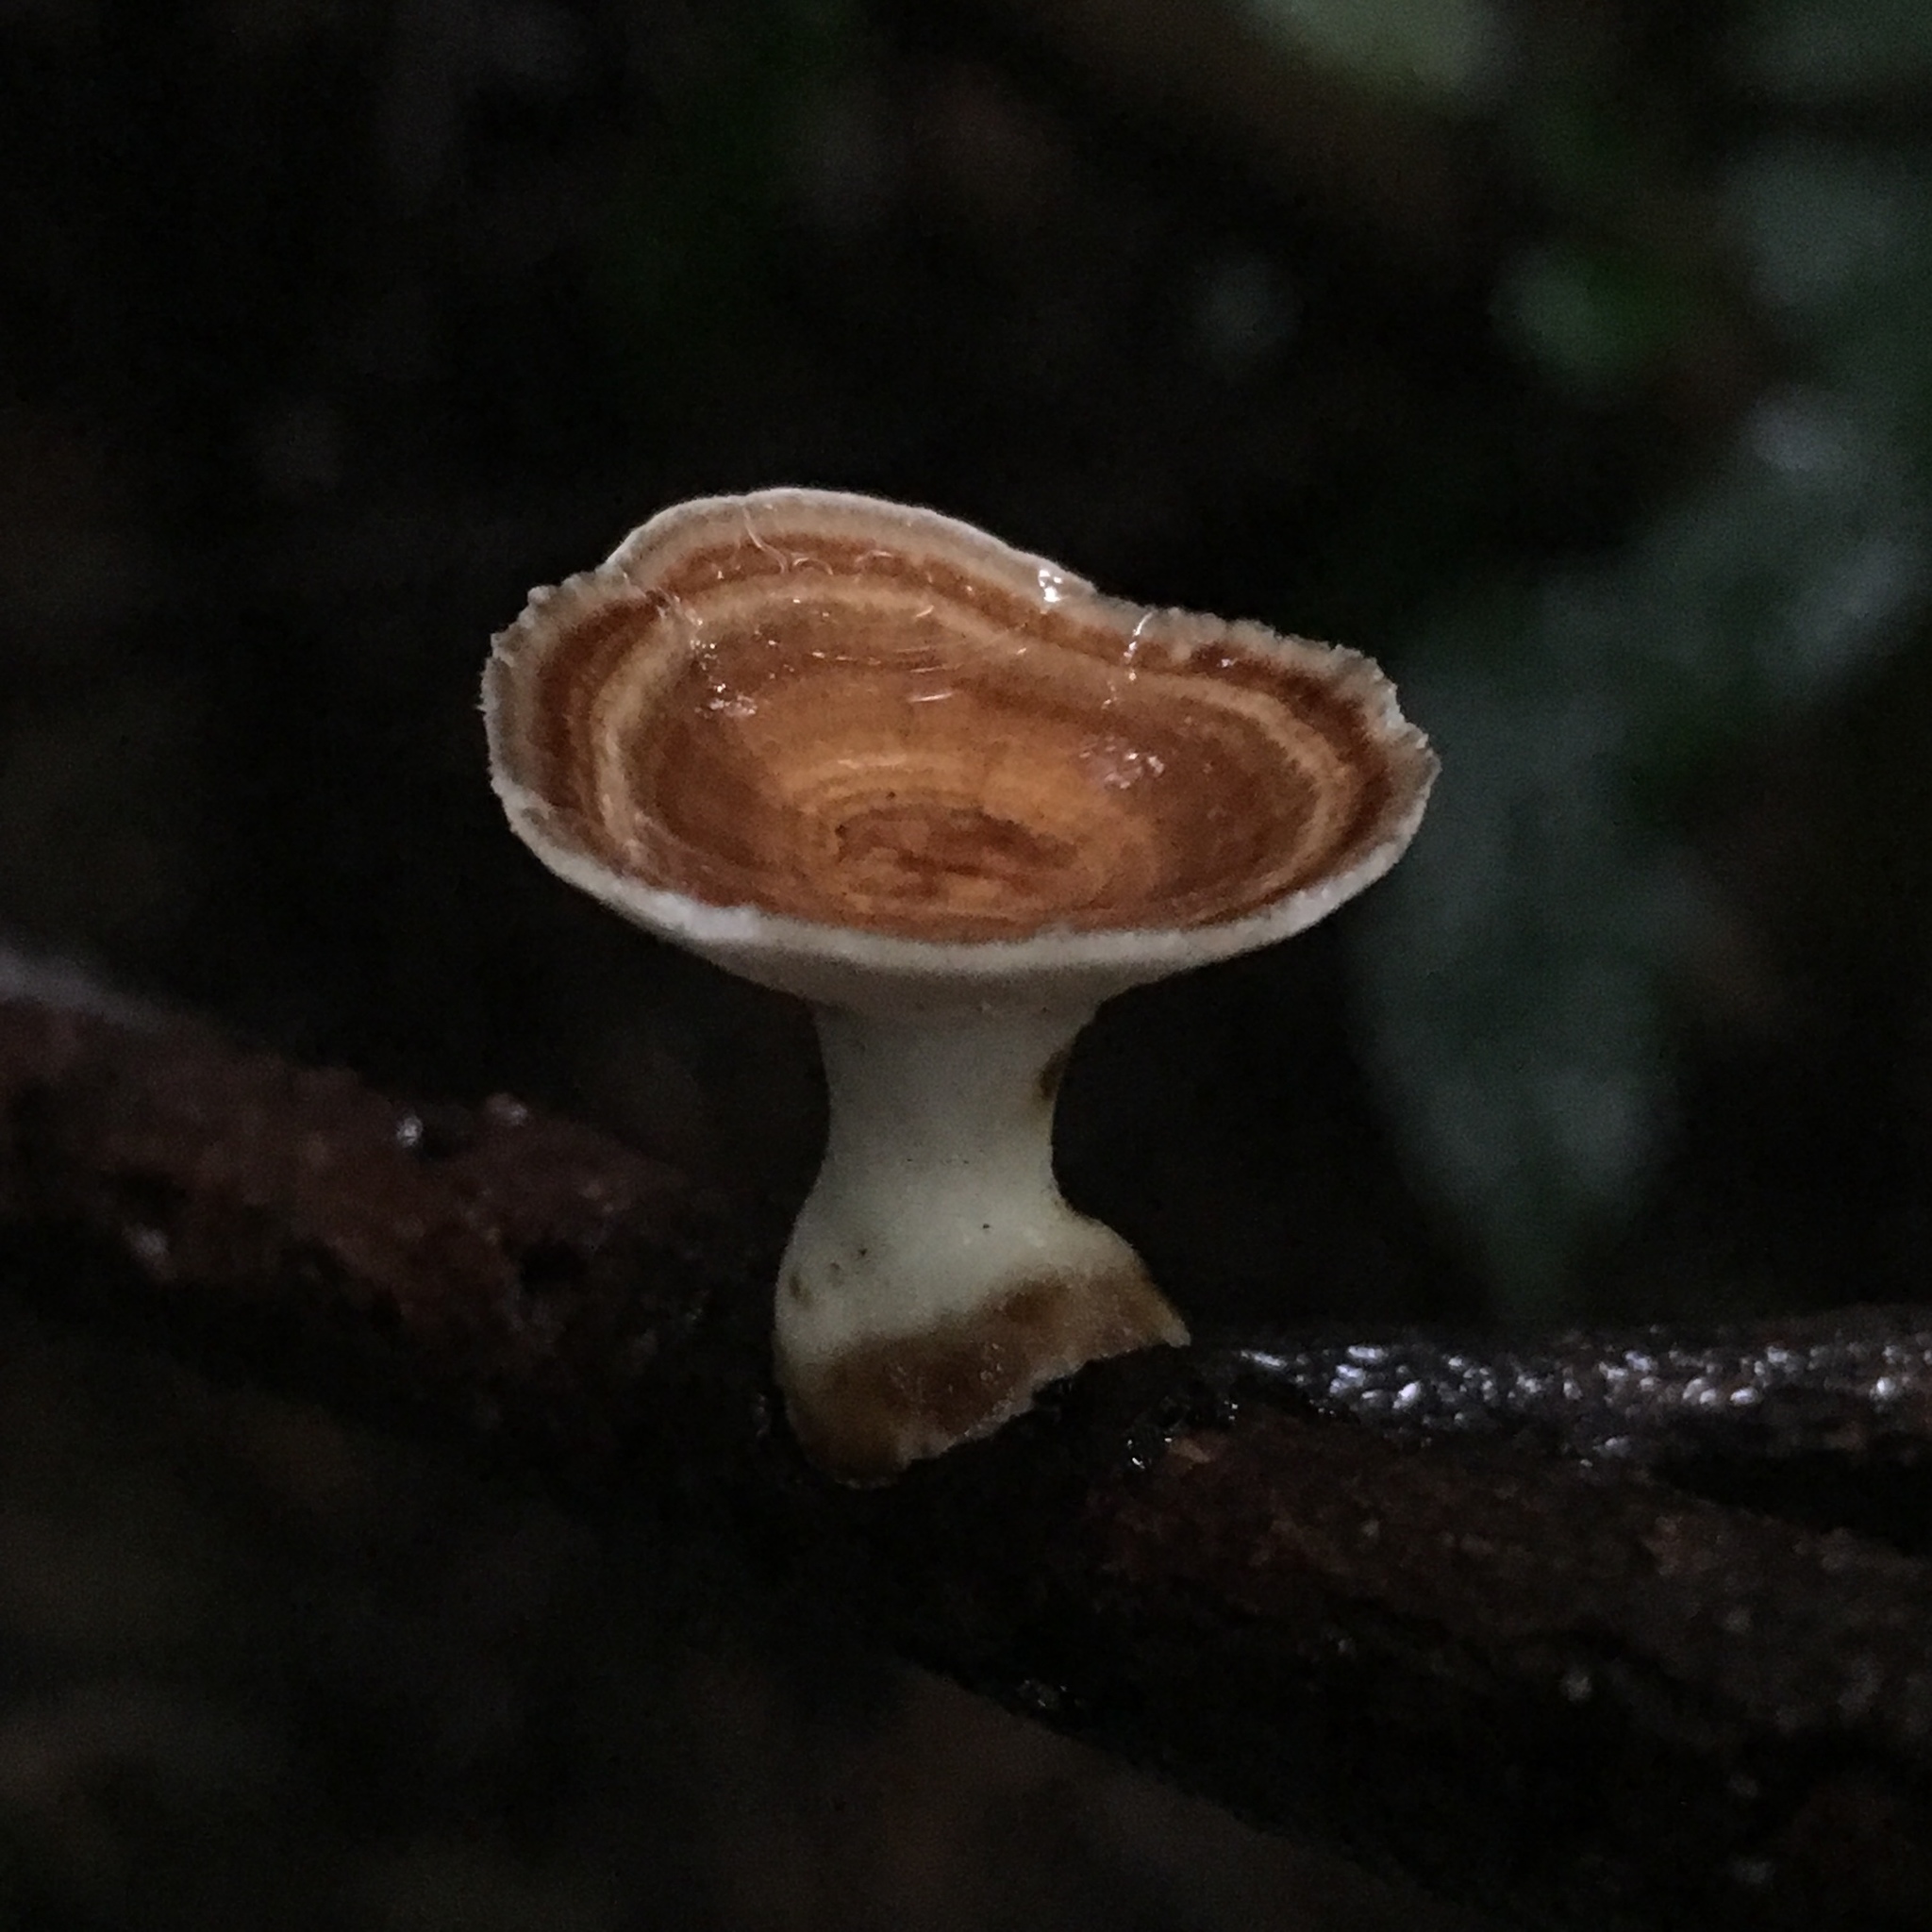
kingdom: Fungi
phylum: Basidiomycota
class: Agaricomycetes
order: Polyporales
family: Polyporaceae
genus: Microporus
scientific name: Microporus xanthopus
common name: Yellow-stemmed micropore
